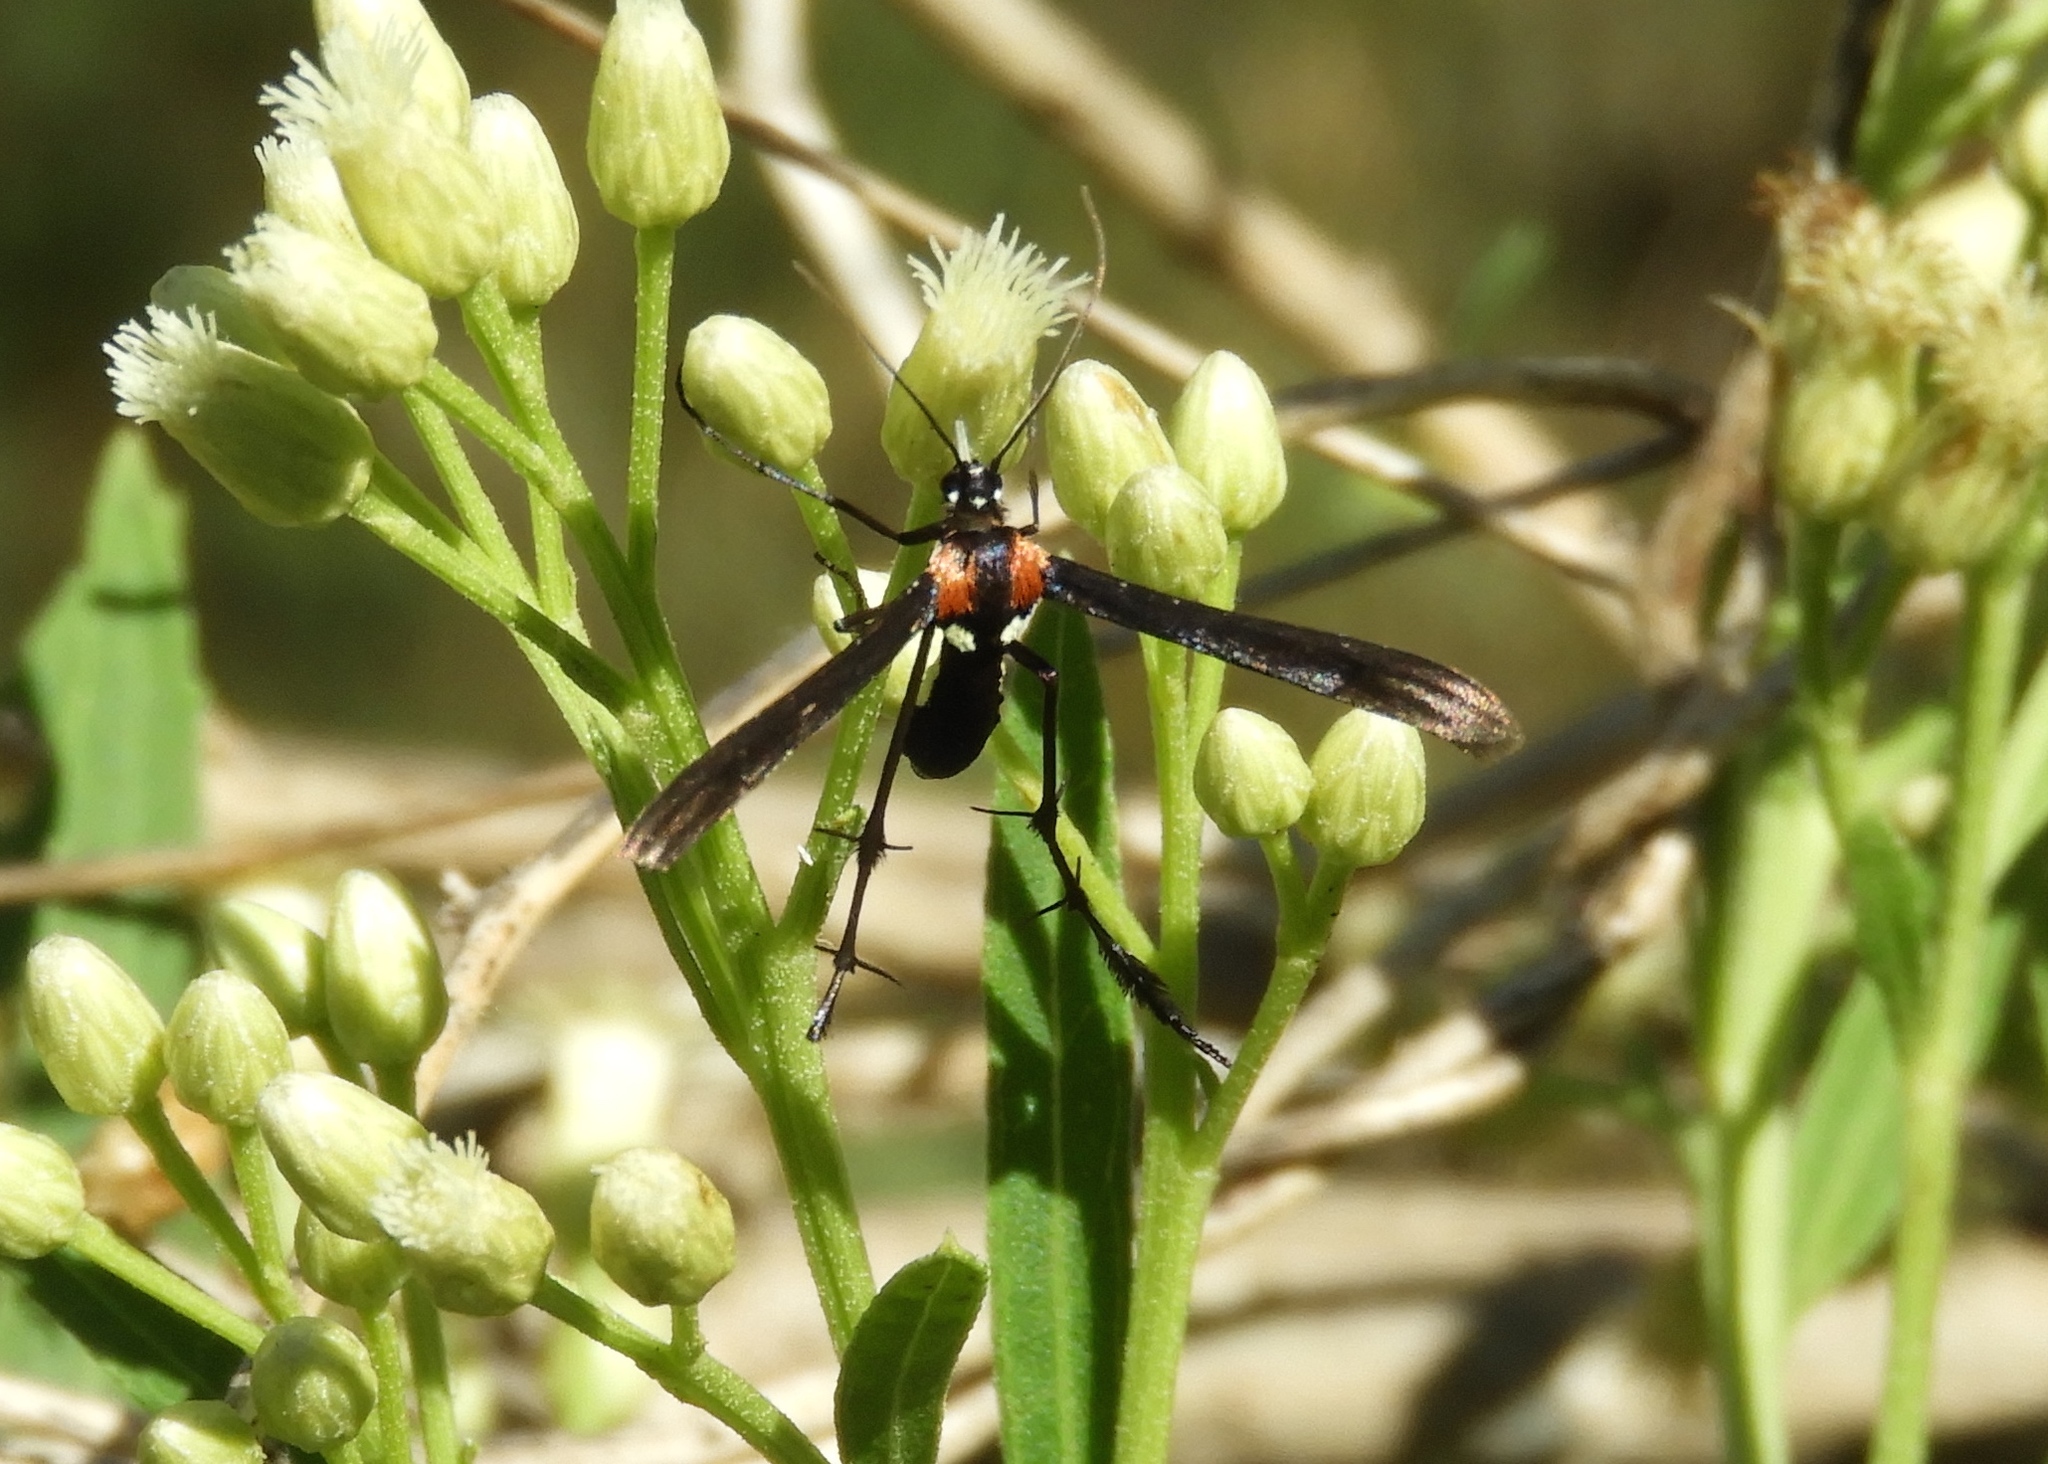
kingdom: Animalia
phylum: Arthropoda
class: Insecta
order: Lepidoptera
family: Pterophoridae
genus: Hellinsia
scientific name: Hellinsia chamelai
